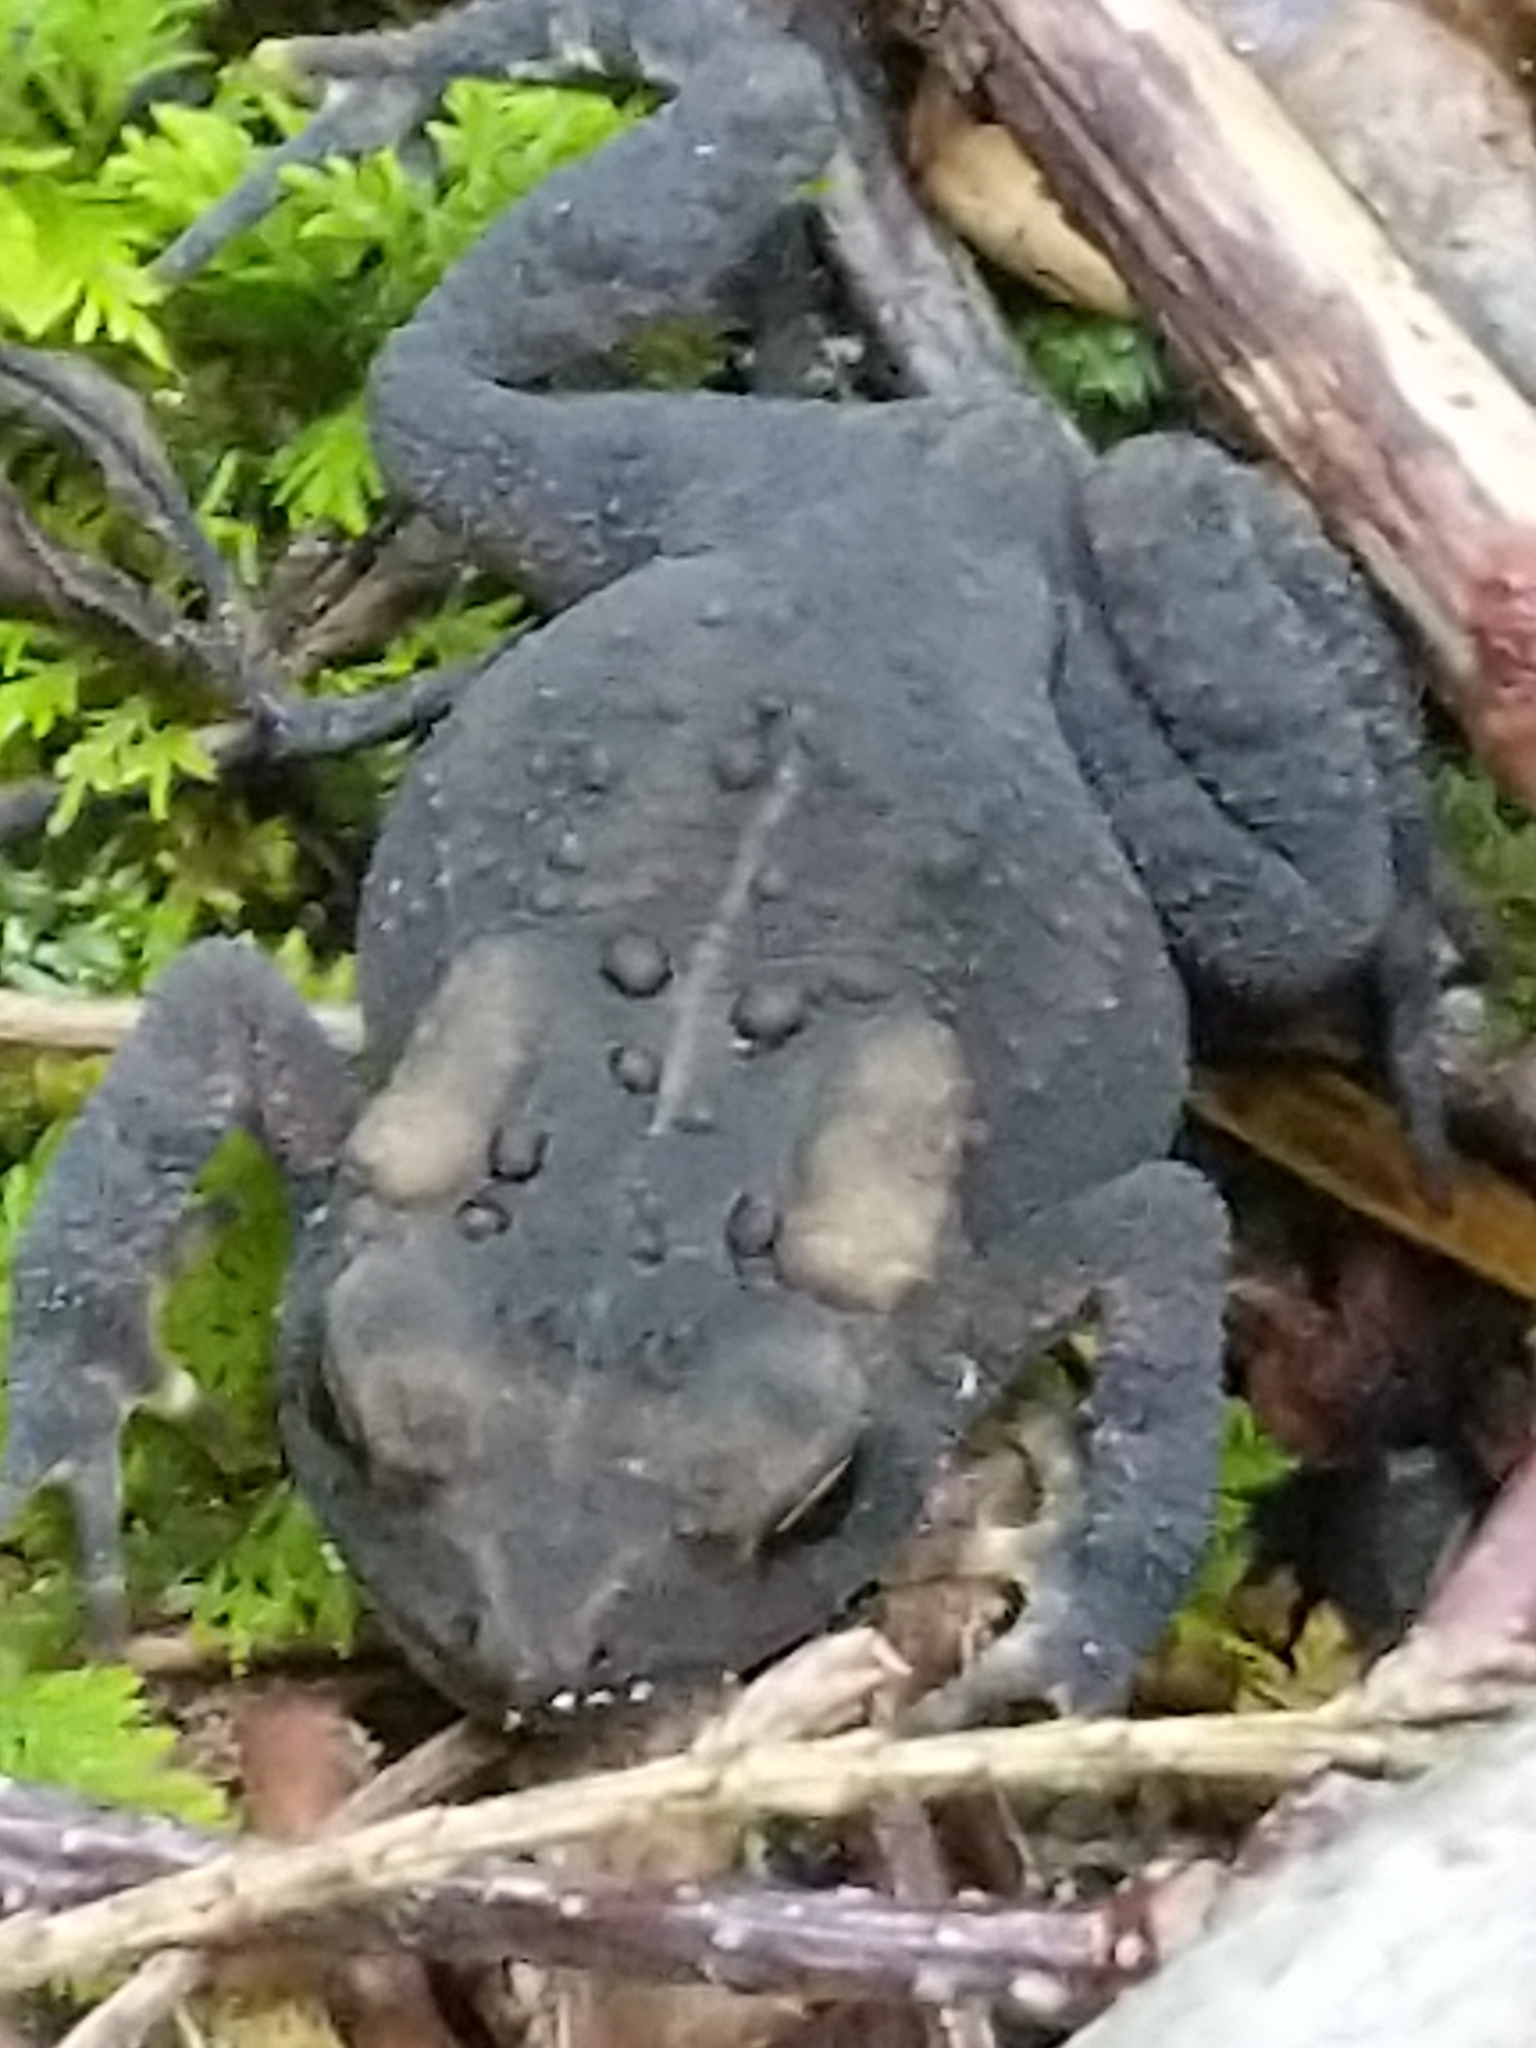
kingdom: Animalia
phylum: Chordata
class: Amphibia
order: Anura
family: Bufonidae
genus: Anaxyrus
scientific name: Anaxyrus americanus
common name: American toad
